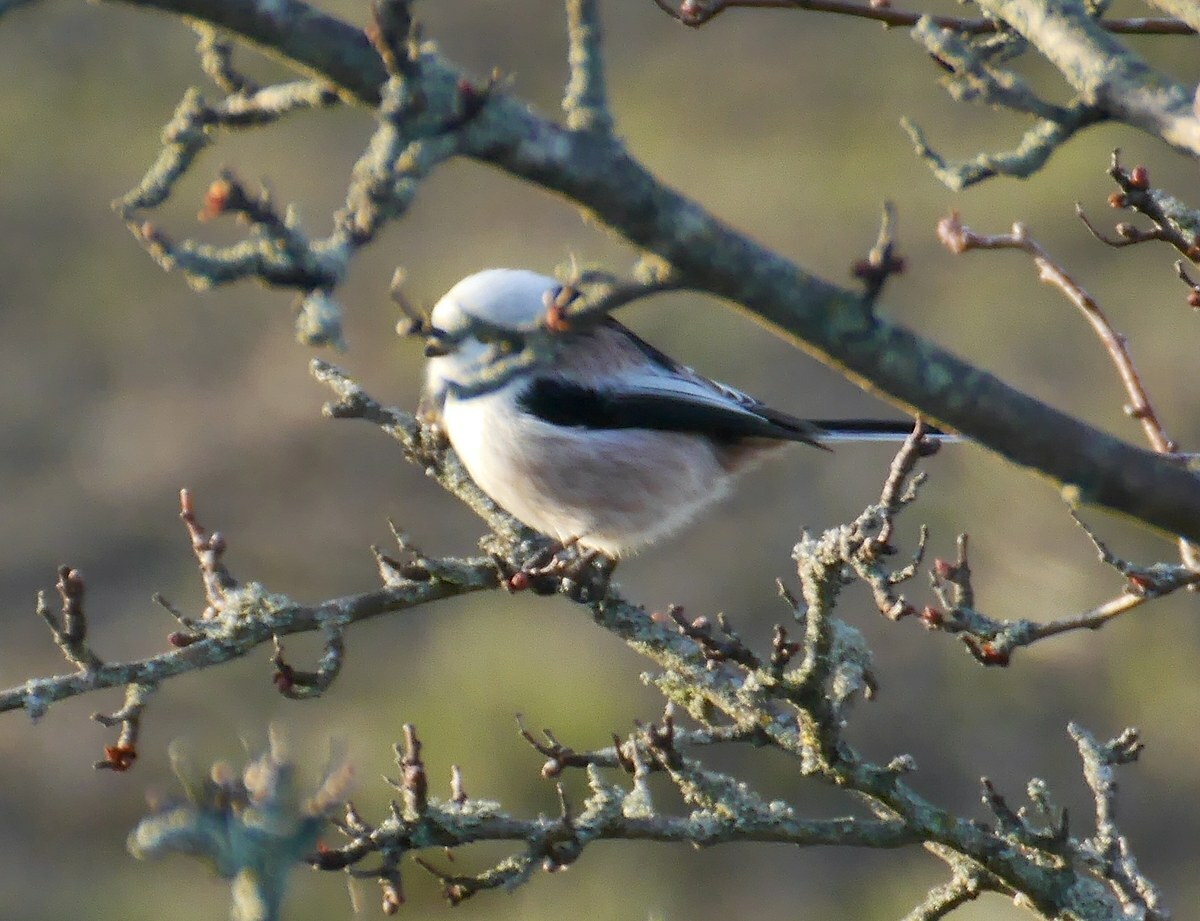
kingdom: Animalia
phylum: Chordata
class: Aves
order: Passeriformes
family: Aegithalidae
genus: Aegithalos
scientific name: Aegithalos caudatus
